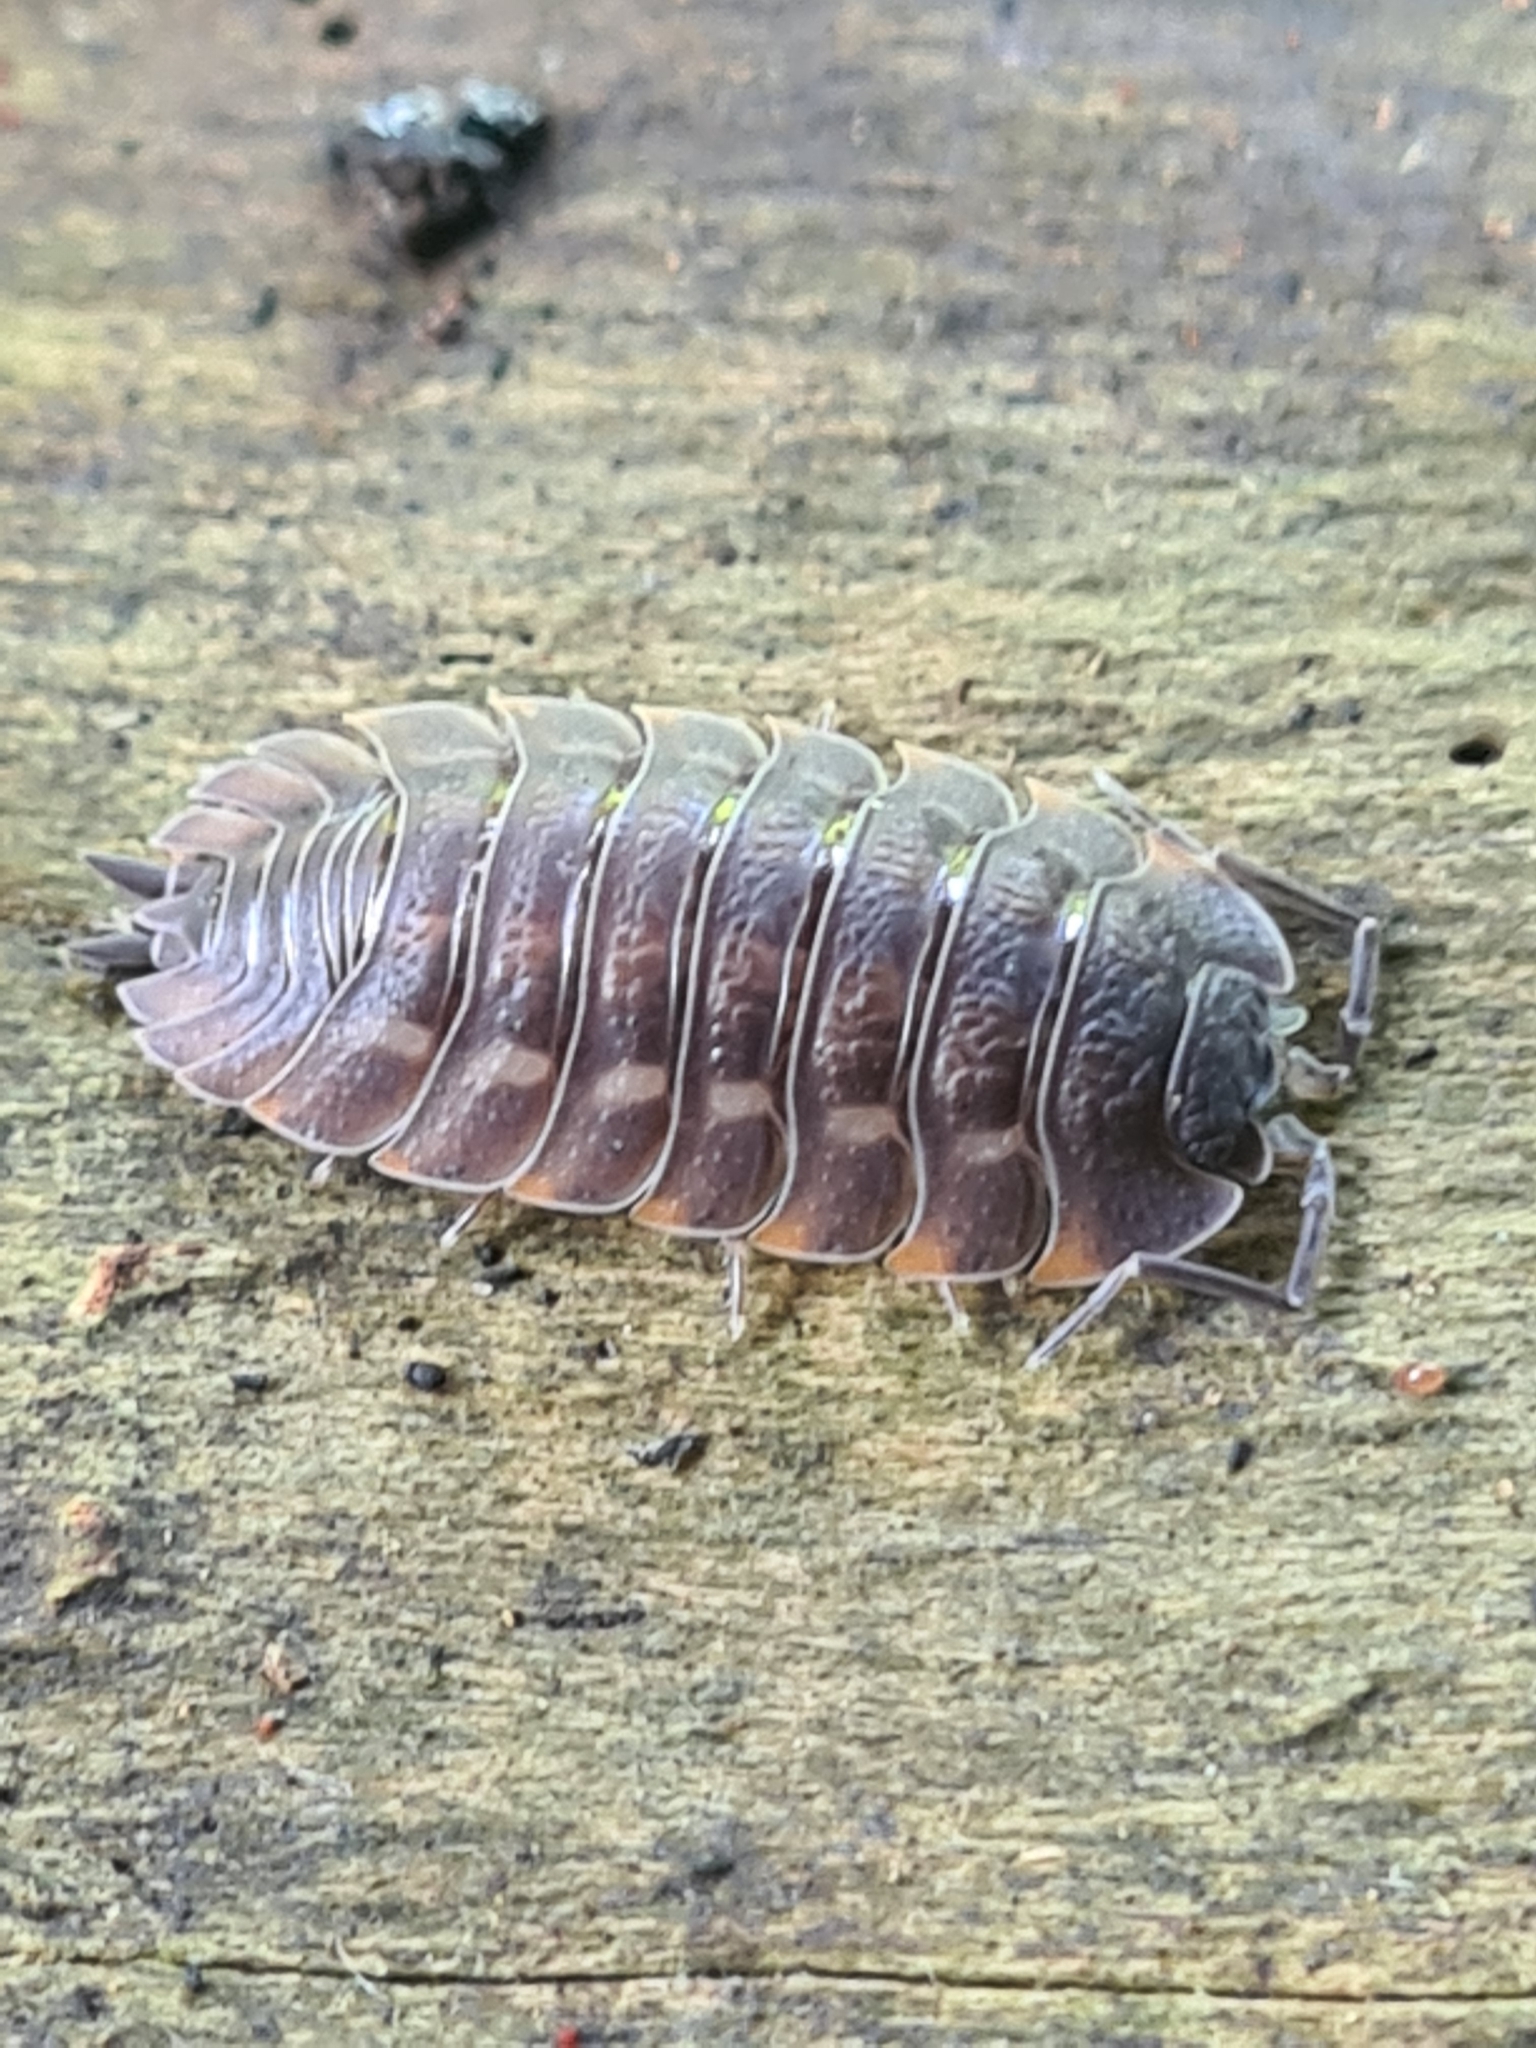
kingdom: Animalia
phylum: Arthropoda
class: Malacostraca
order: Isopoda
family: Trachelipodidae
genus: Trachelipus
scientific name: Trachelipus ratzeburgii
